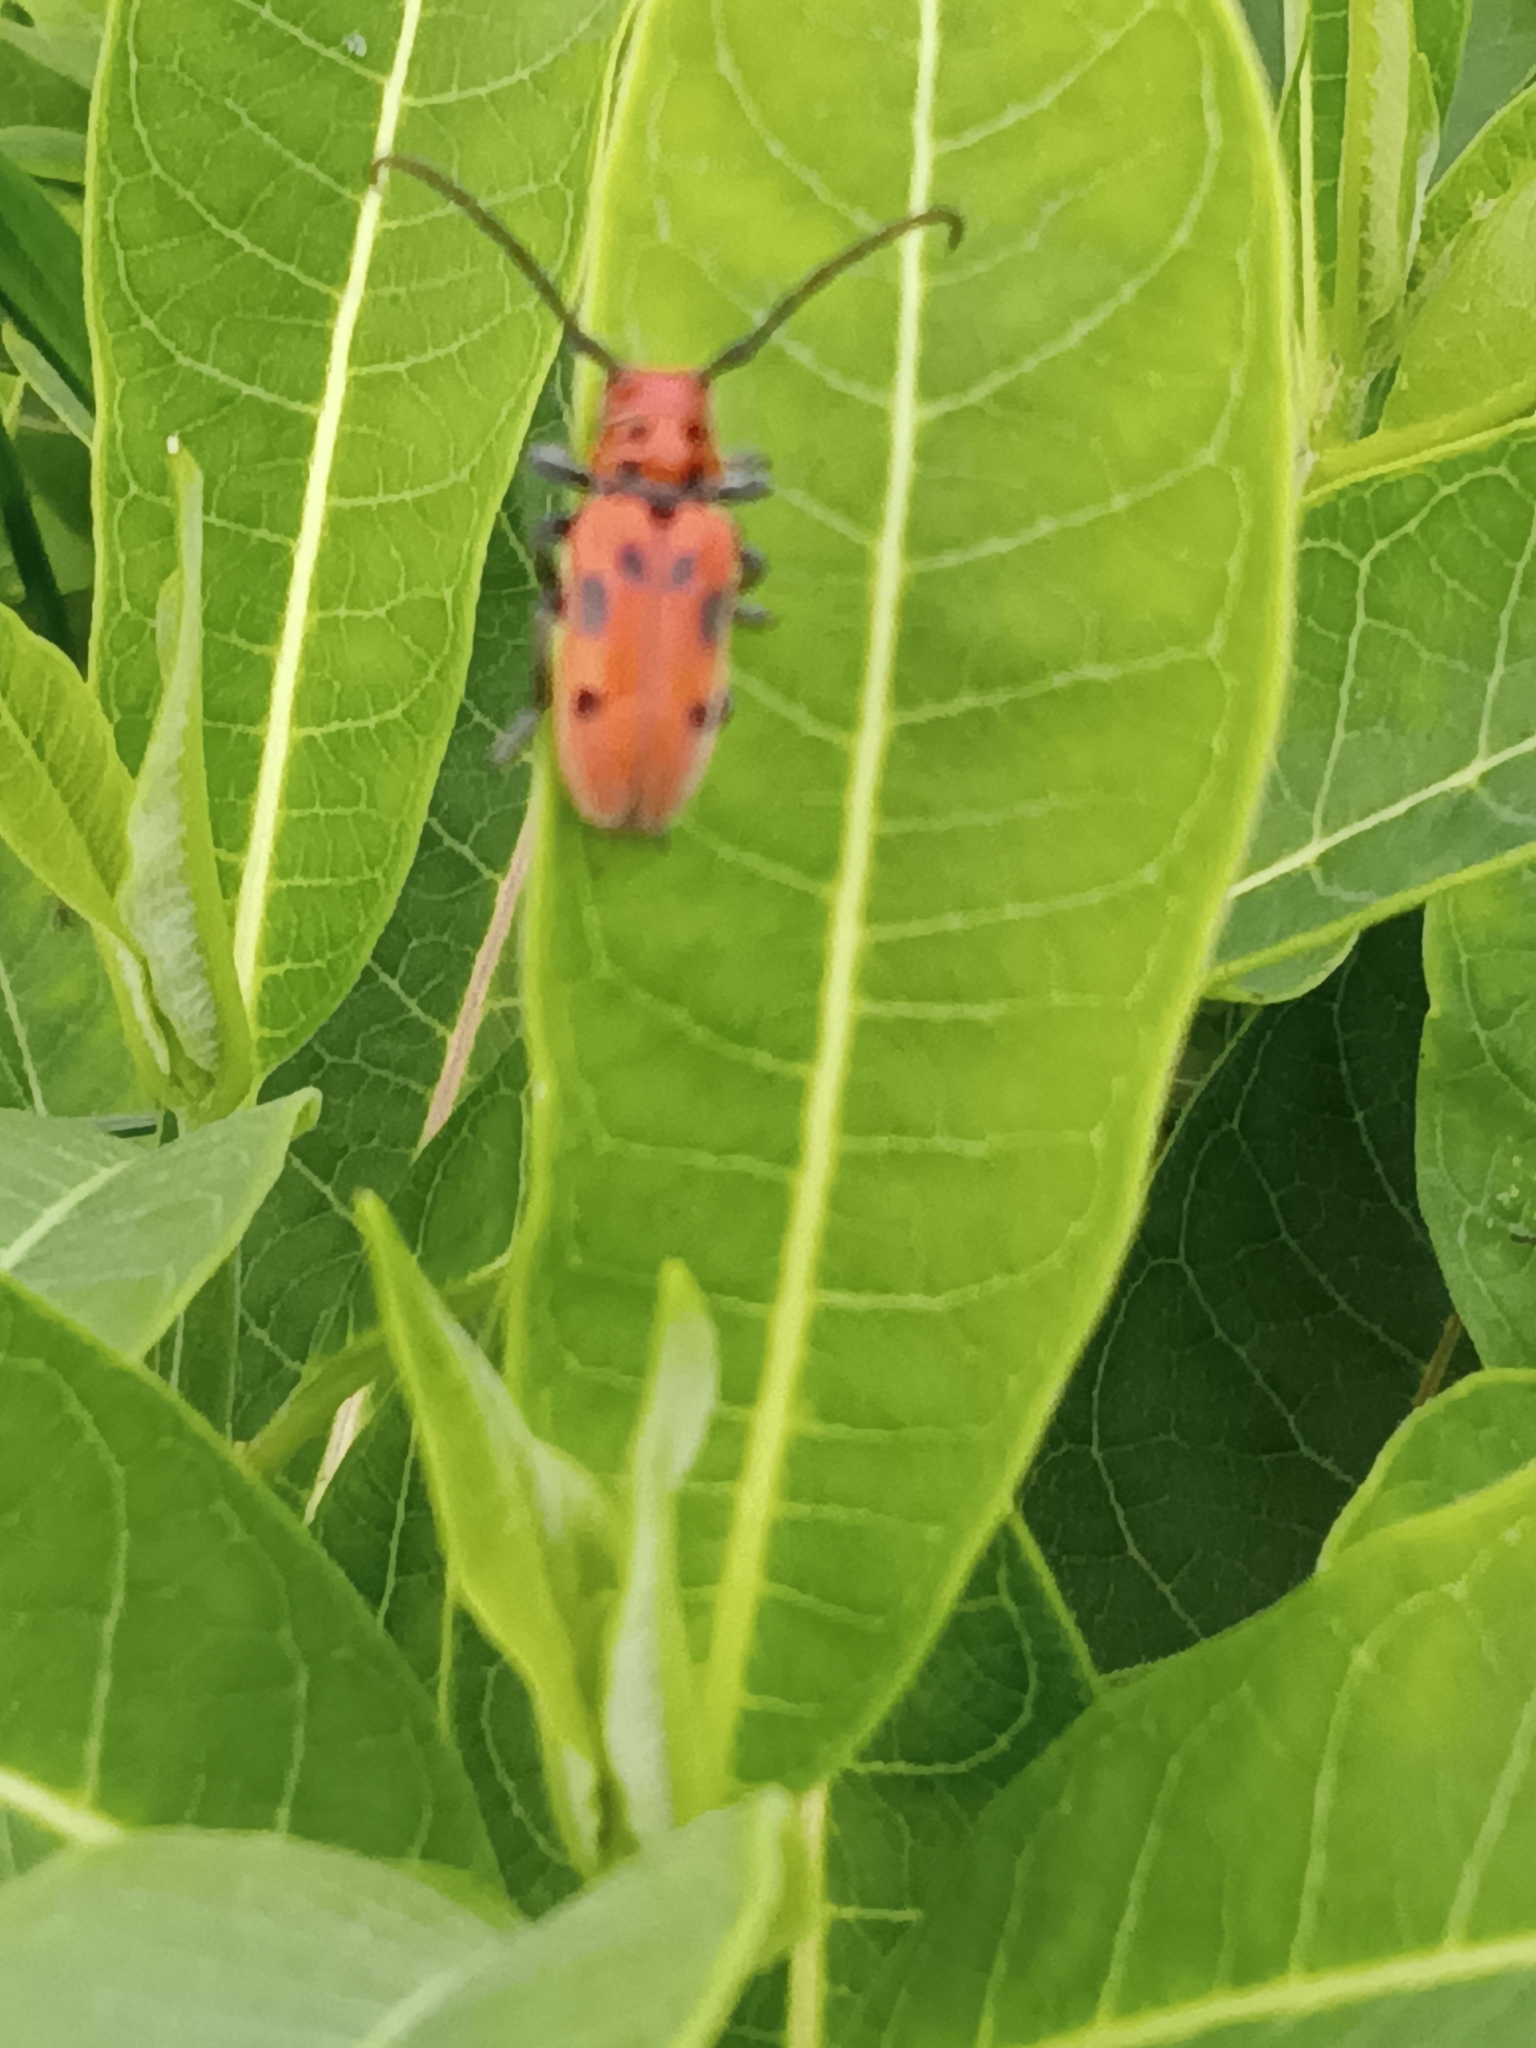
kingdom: Animalia
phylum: Arthropoda
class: Insecta
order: Coleoptera
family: Cerambycidae
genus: Tetraopes
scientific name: Tetraopes tetrophthalmus
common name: Red milkweed beetle
